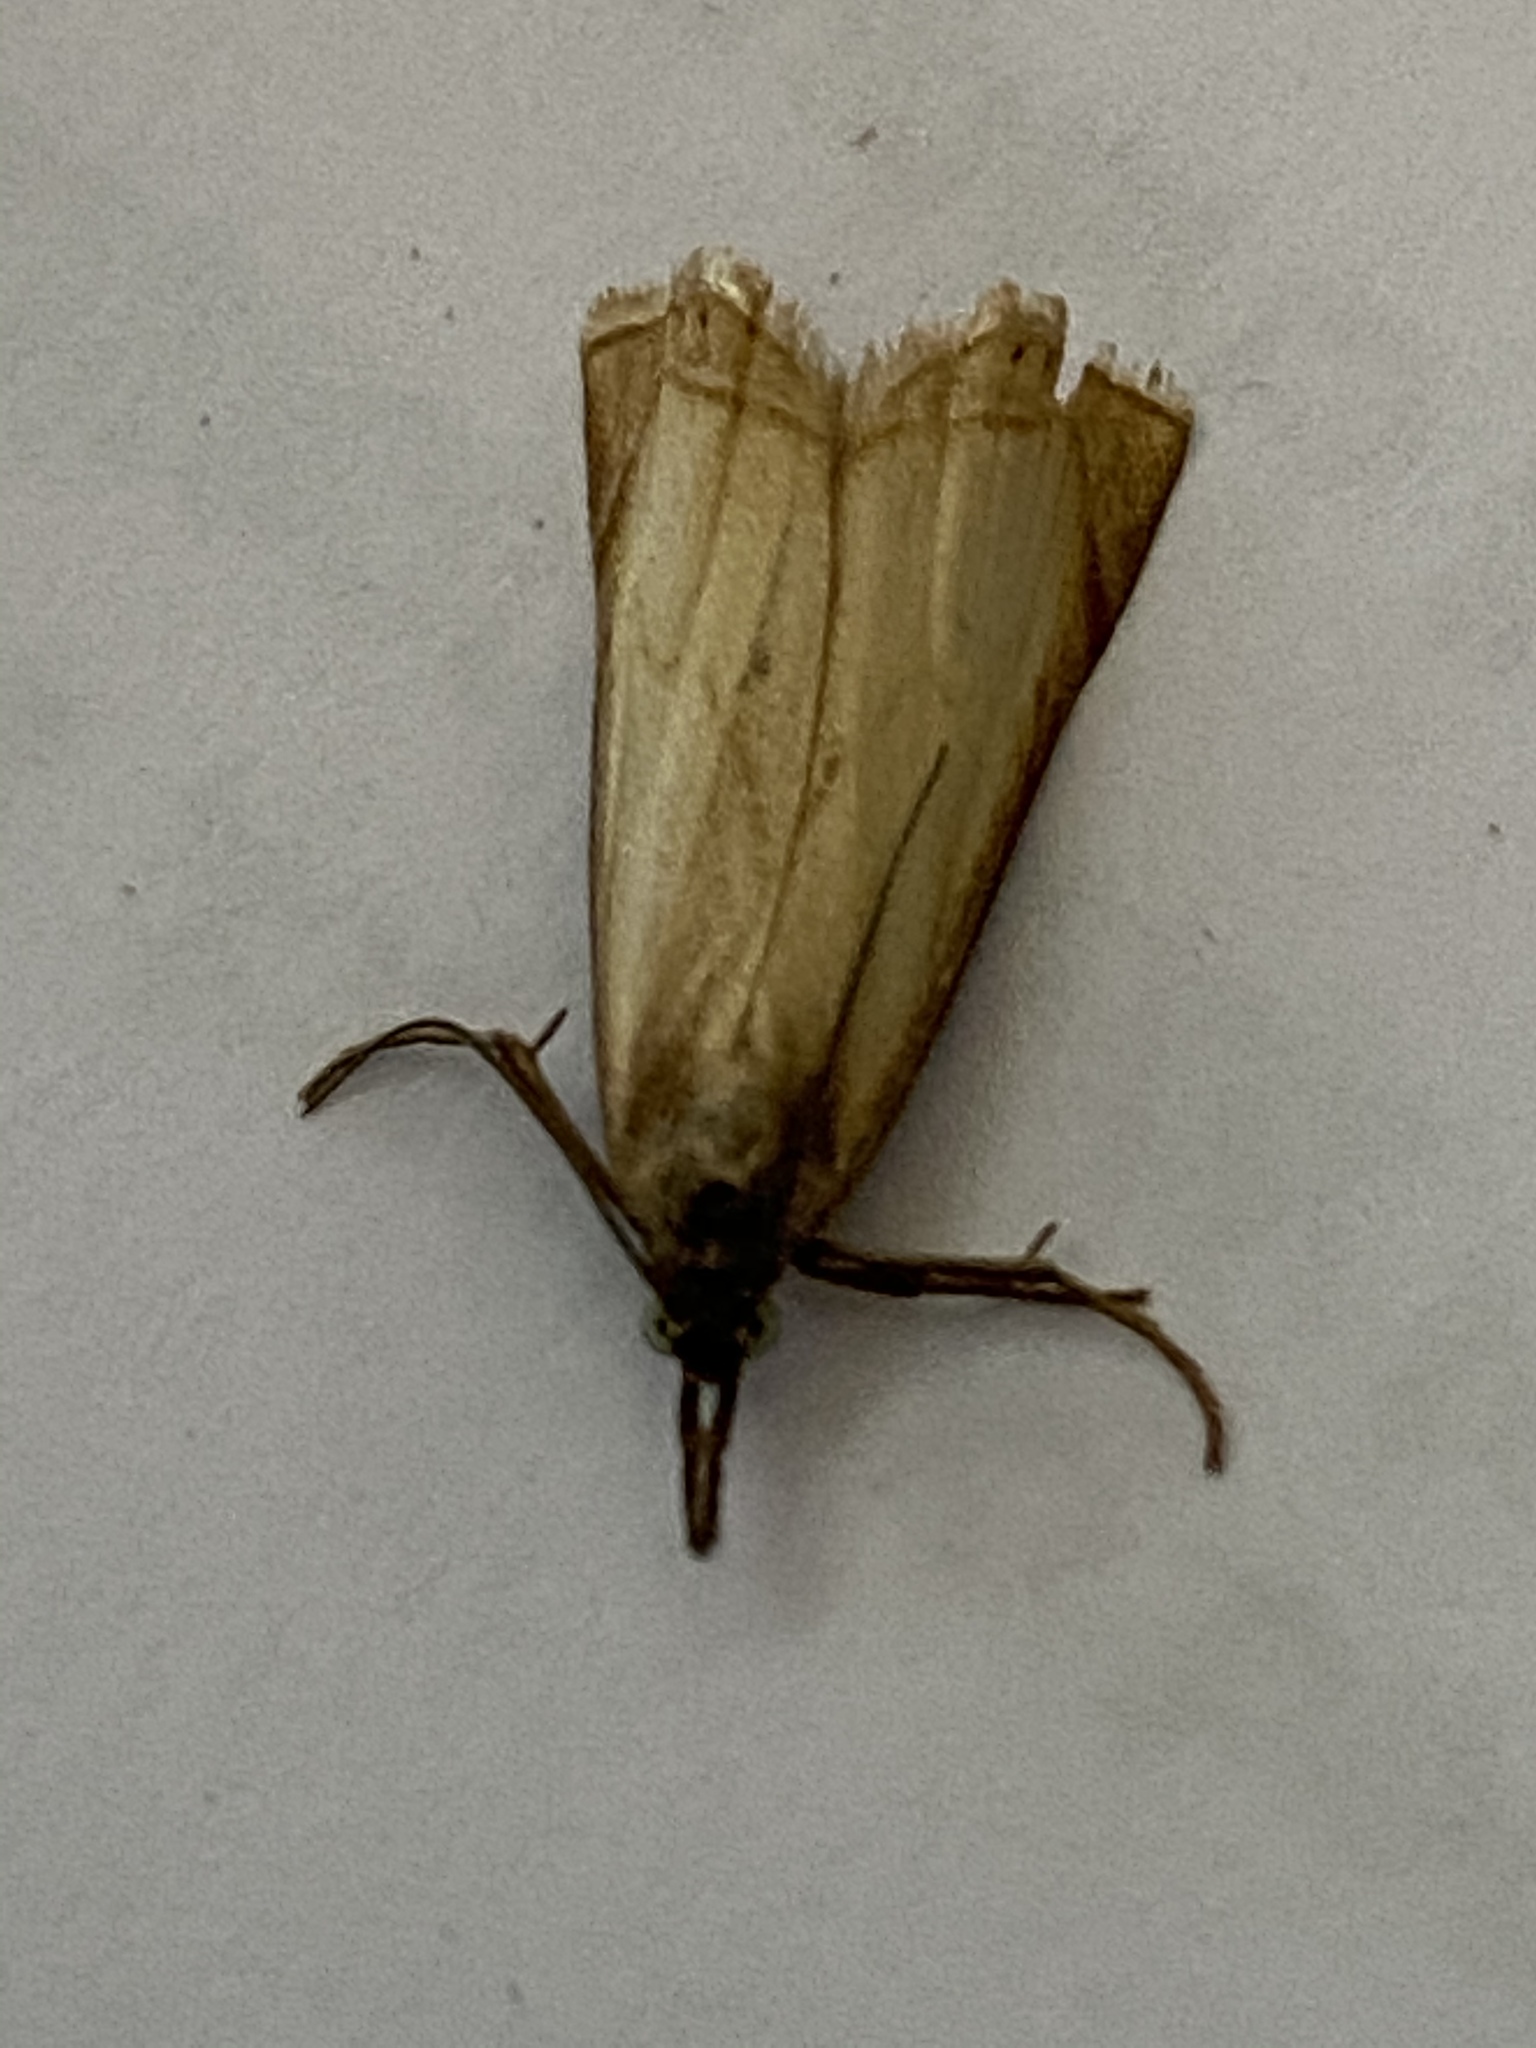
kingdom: Animalia
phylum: Arthropoda
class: Insecta
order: Lepidoptera
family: Crambidae
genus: Chrysoteuchia
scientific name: Chrysoteuchia culmella
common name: Garden grass-veneer
